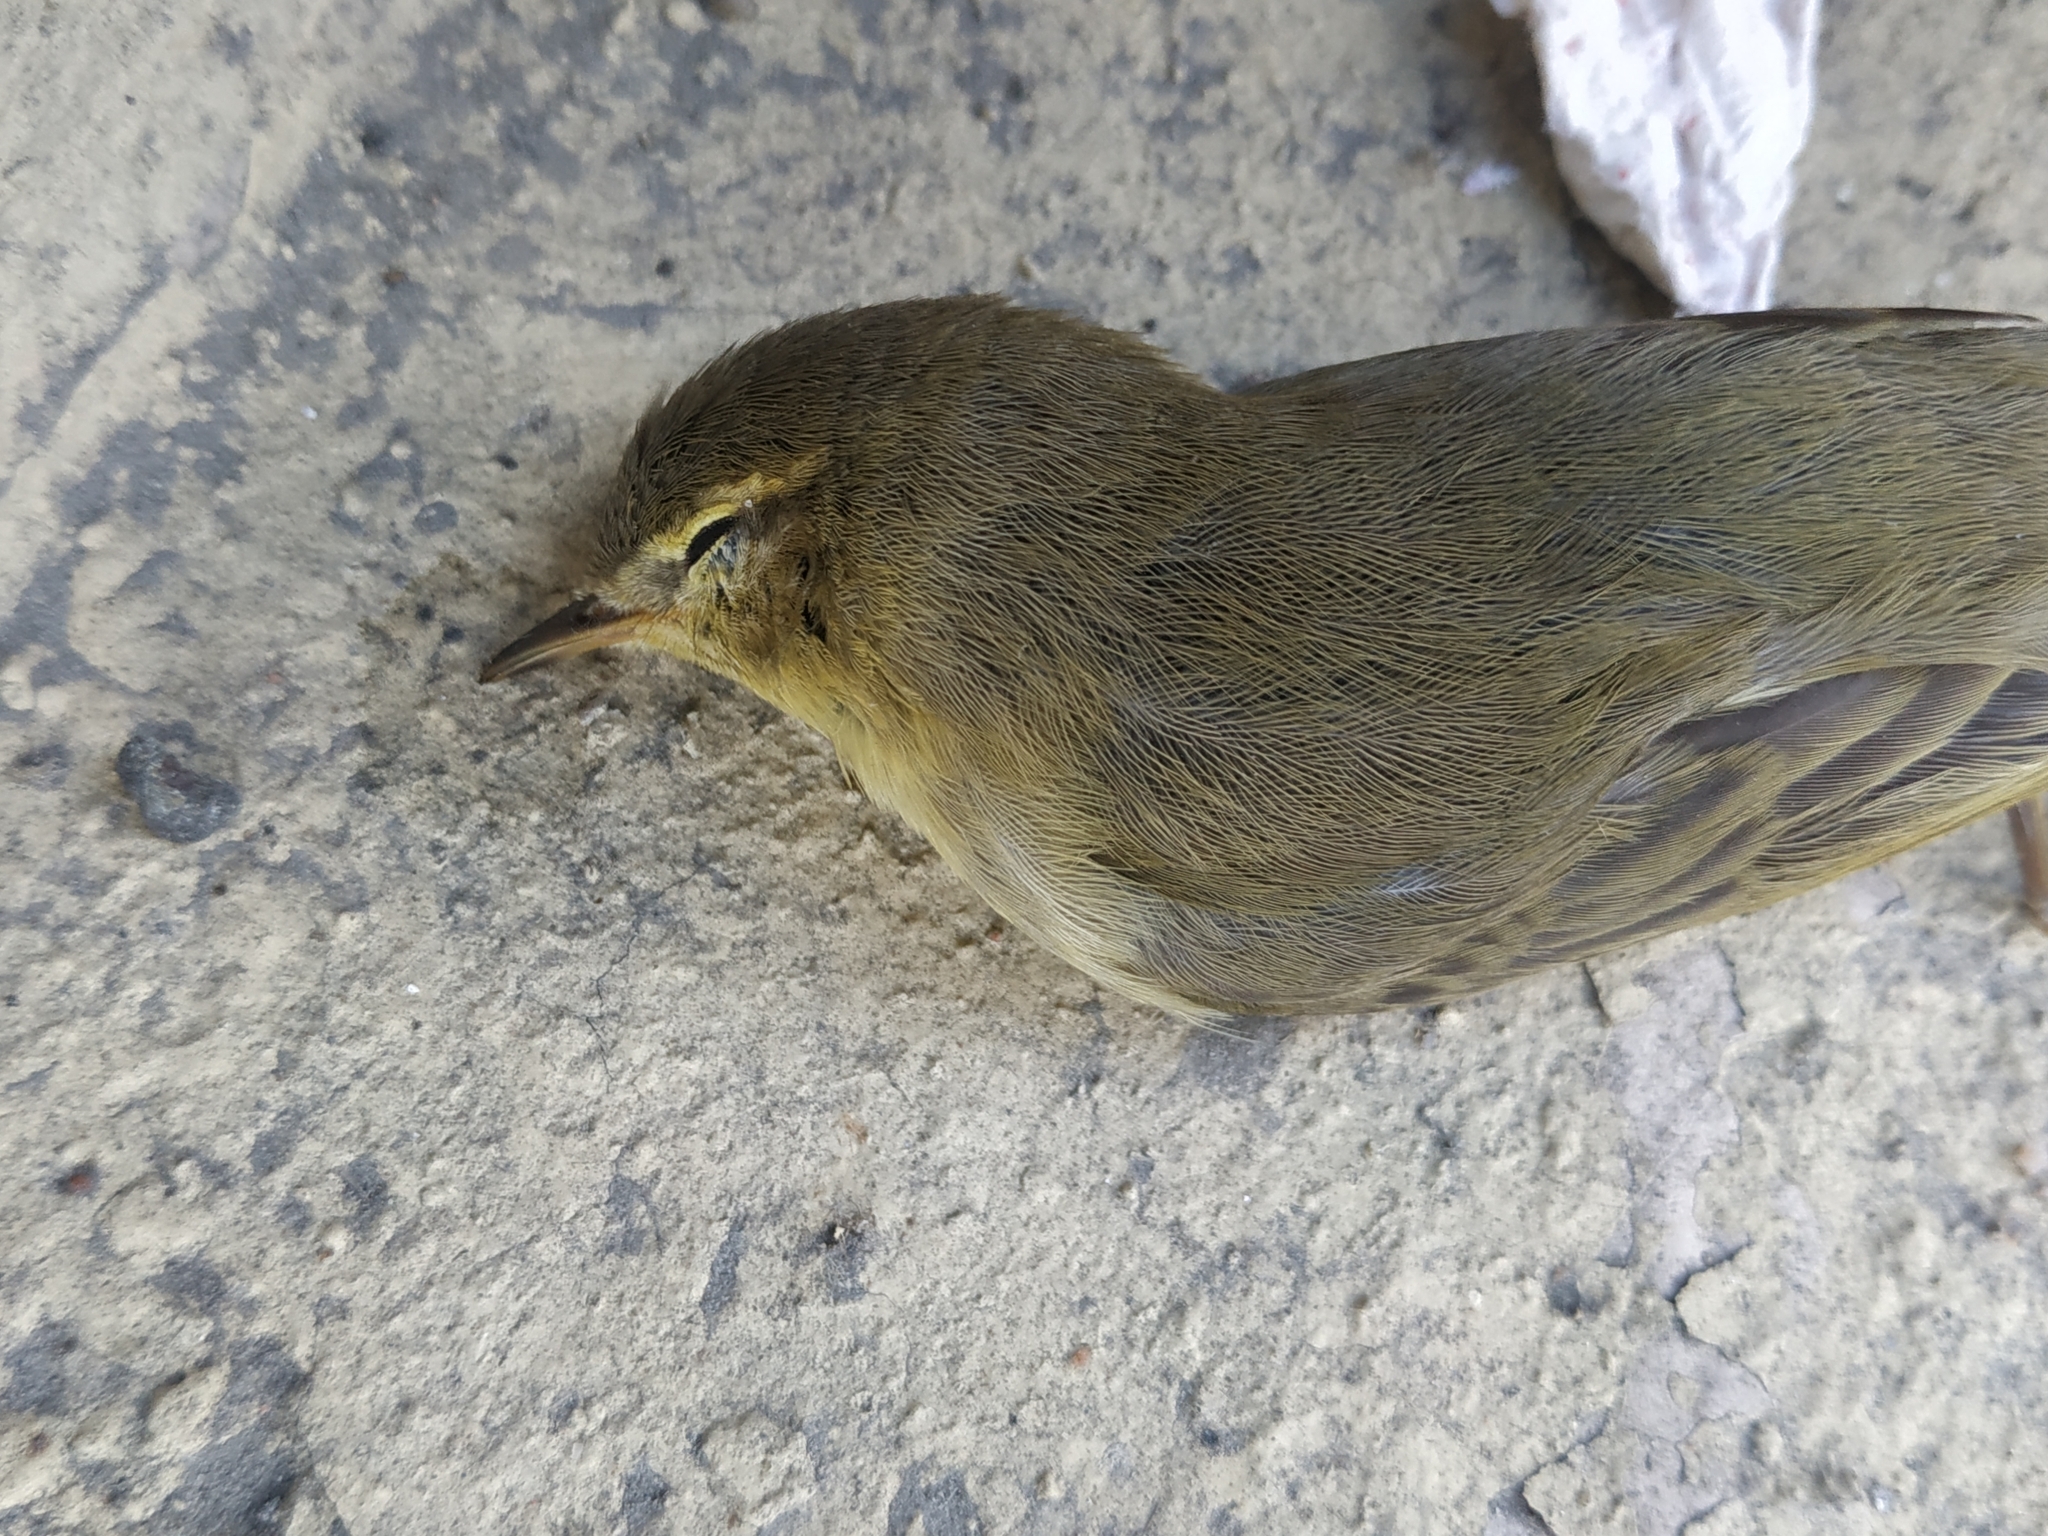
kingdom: Animalia
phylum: Chordata
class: Aves
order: Passeriformes
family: Phylloscopidae
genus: Phylloscopus
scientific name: Phylloscopus trochilus
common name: Willow warbler
